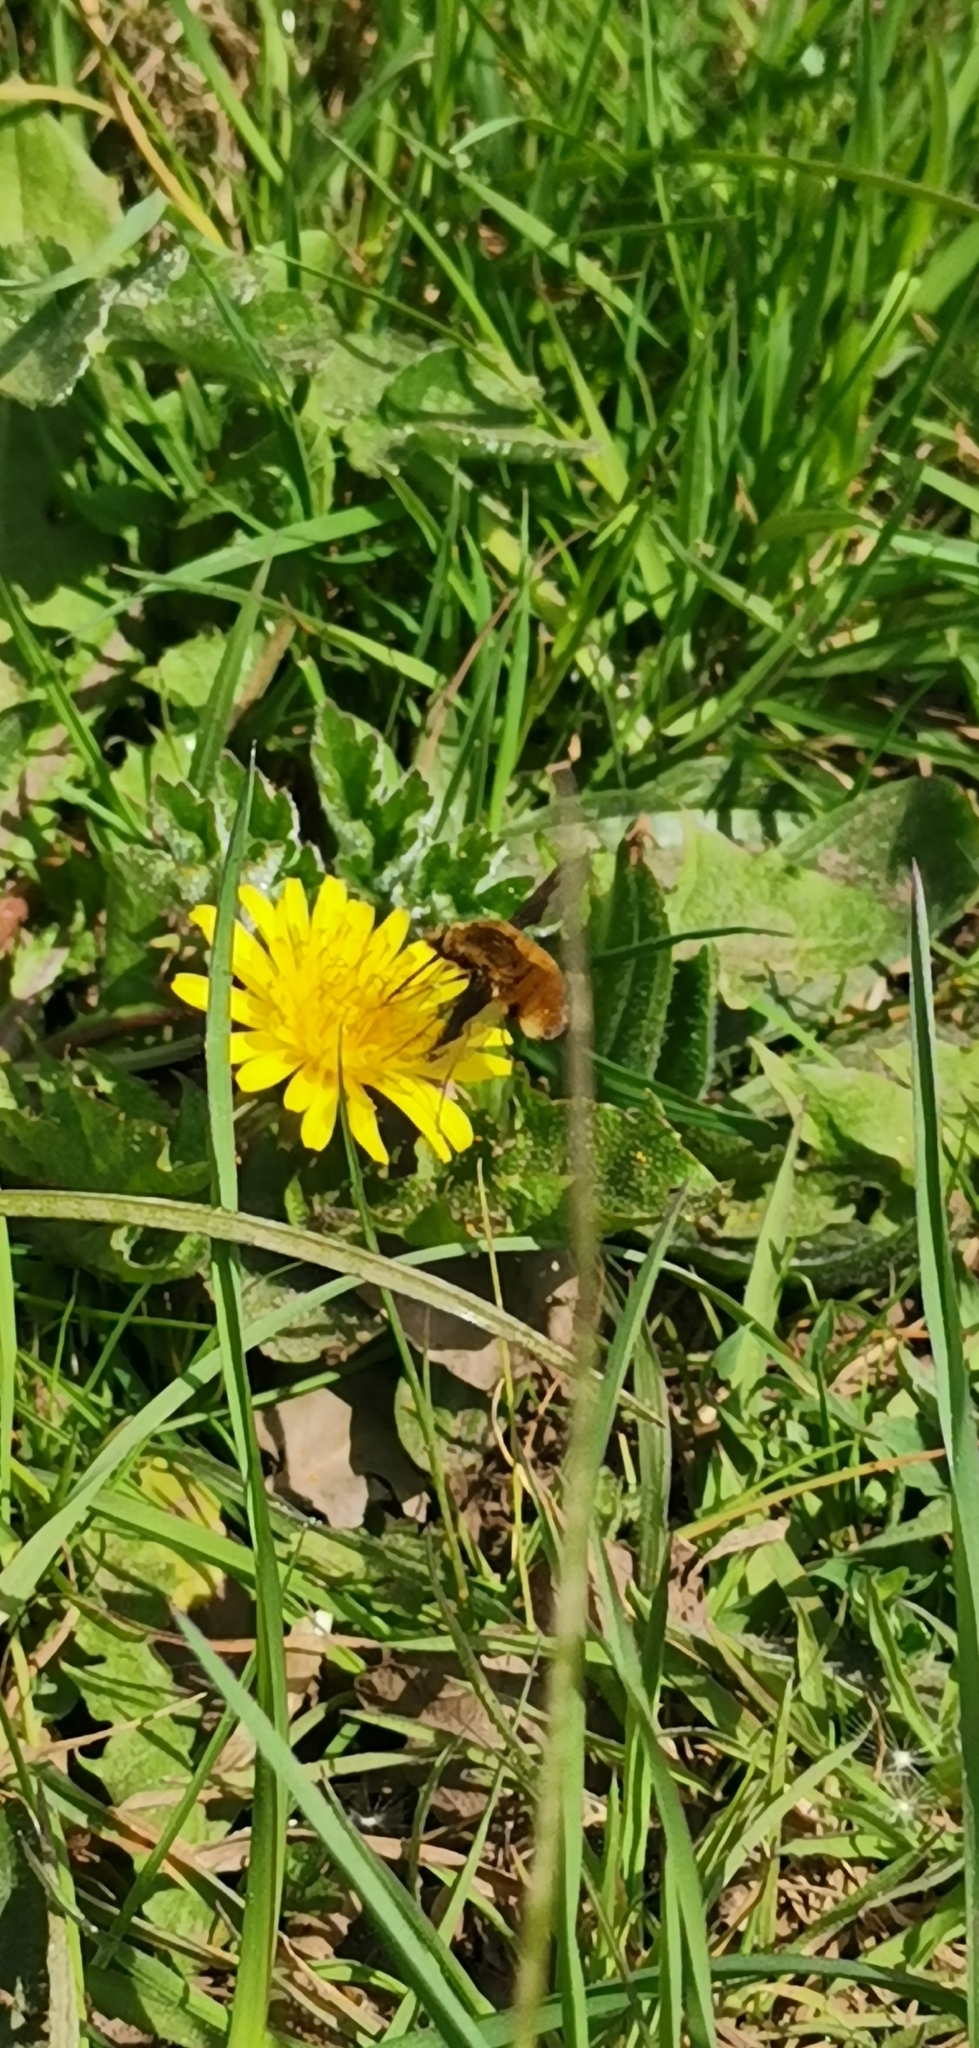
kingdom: Animalia
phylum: Arthropoda
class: Insecta
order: Diptera
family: Bombyliidae
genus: Bombylius
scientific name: Bombylius major
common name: Bee fly
